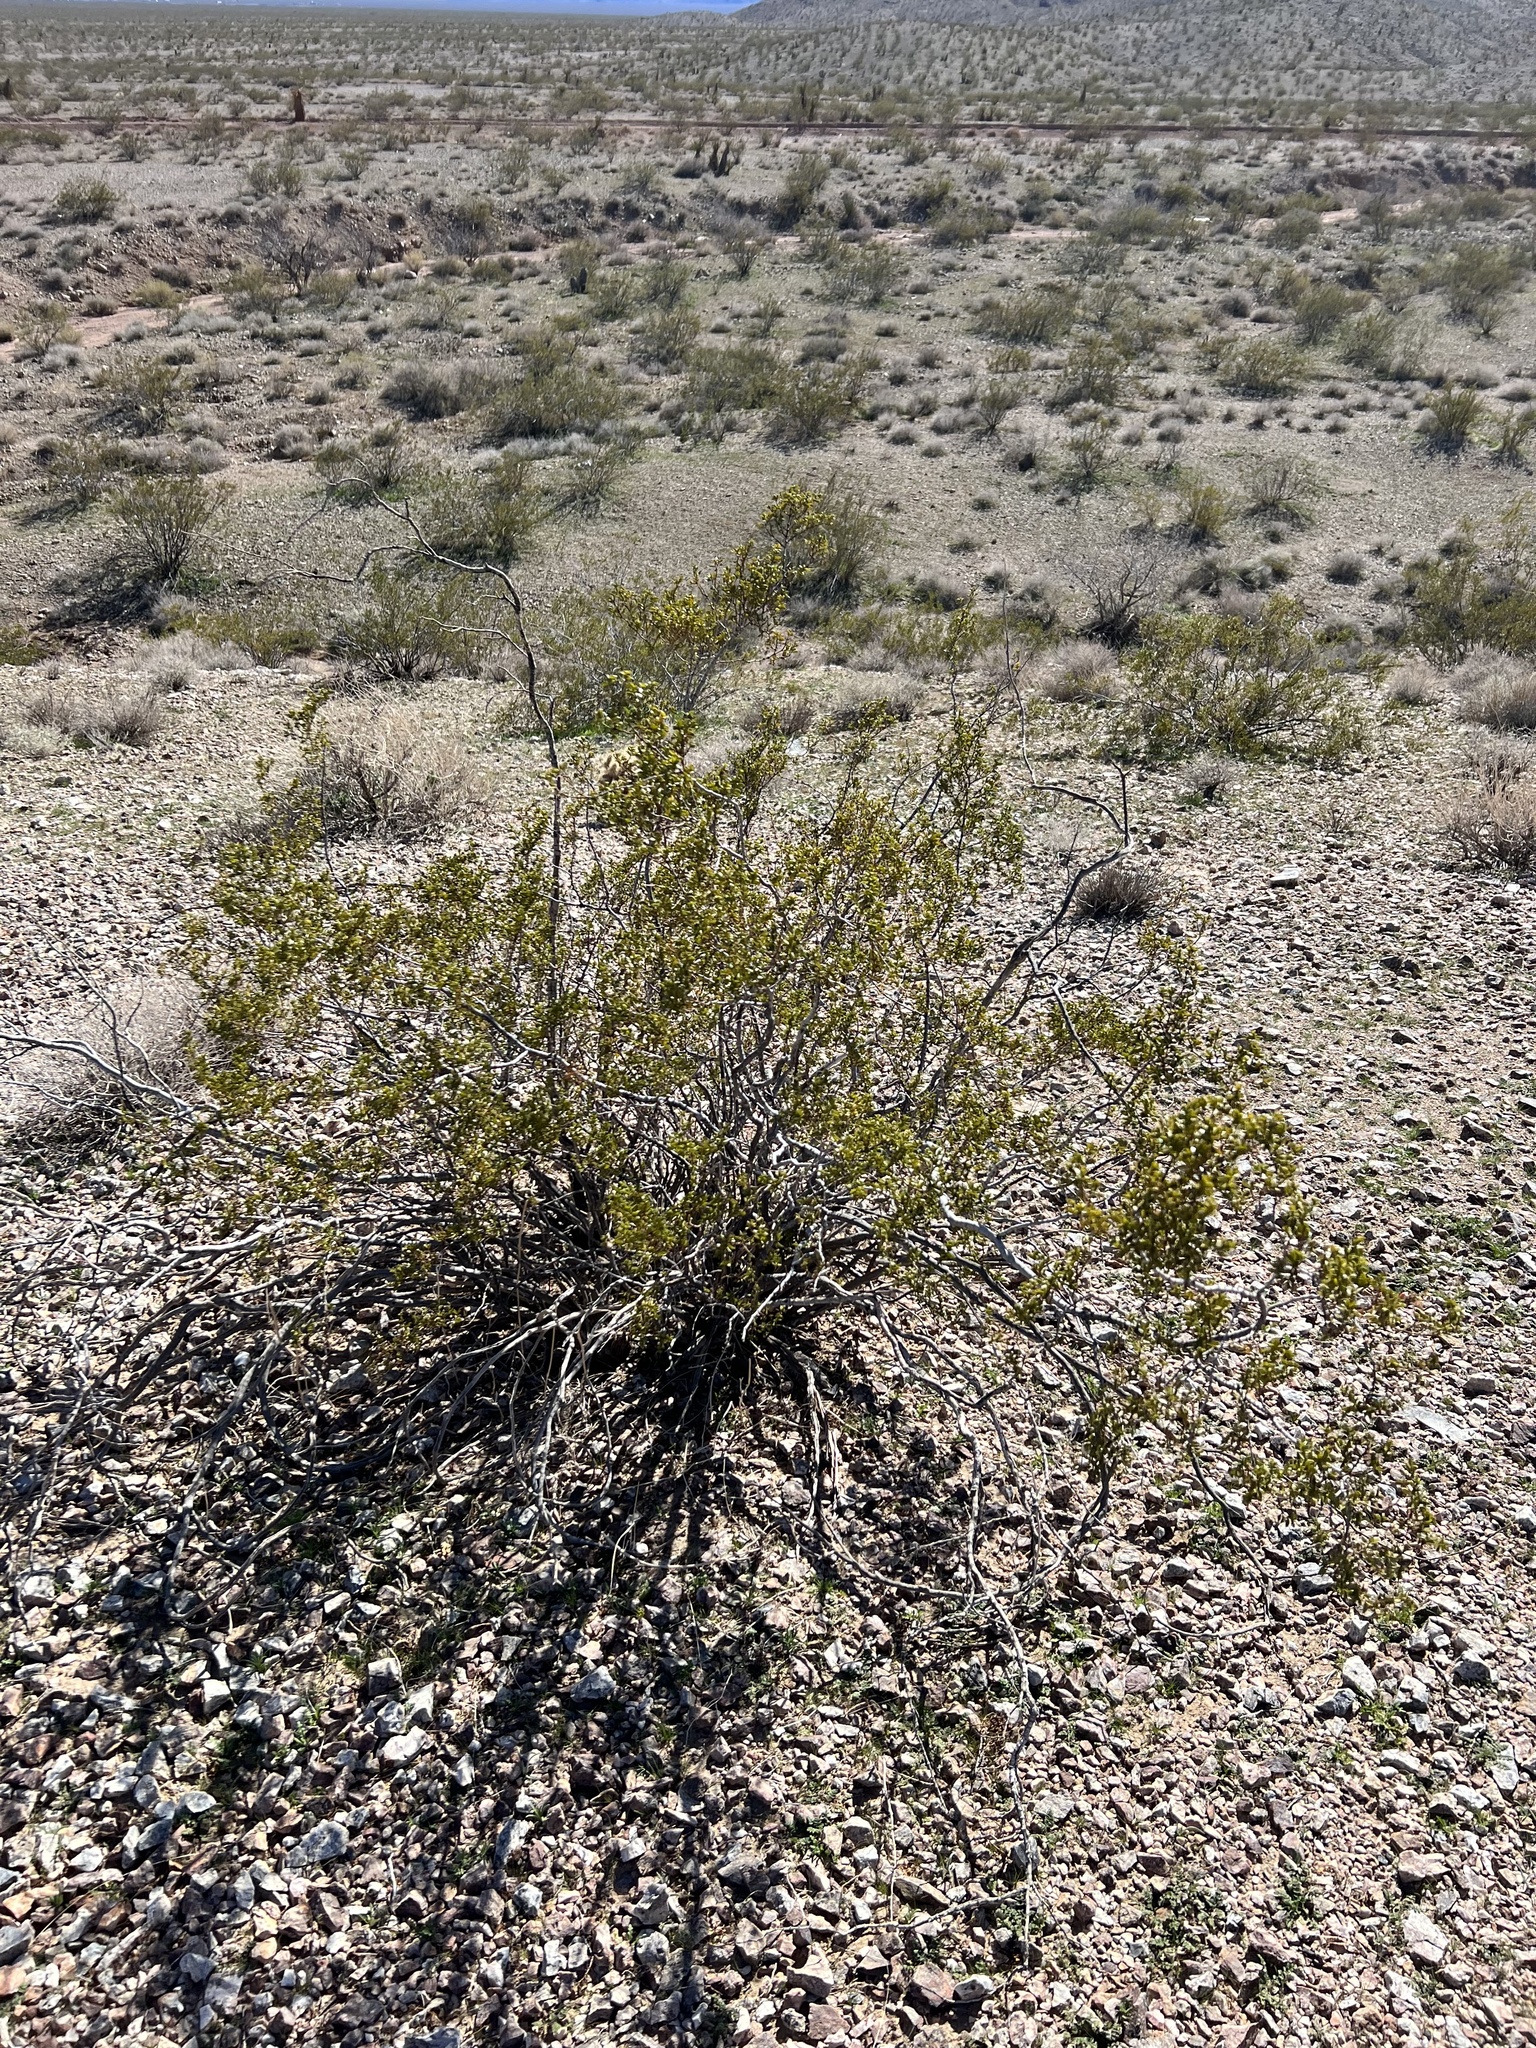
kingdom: Plantae
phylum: Tracheophyta
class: Magnoliopsida
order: Zygophyllales
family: Zygophyllaceae
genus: Larrea
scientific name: Larrea tridentata
